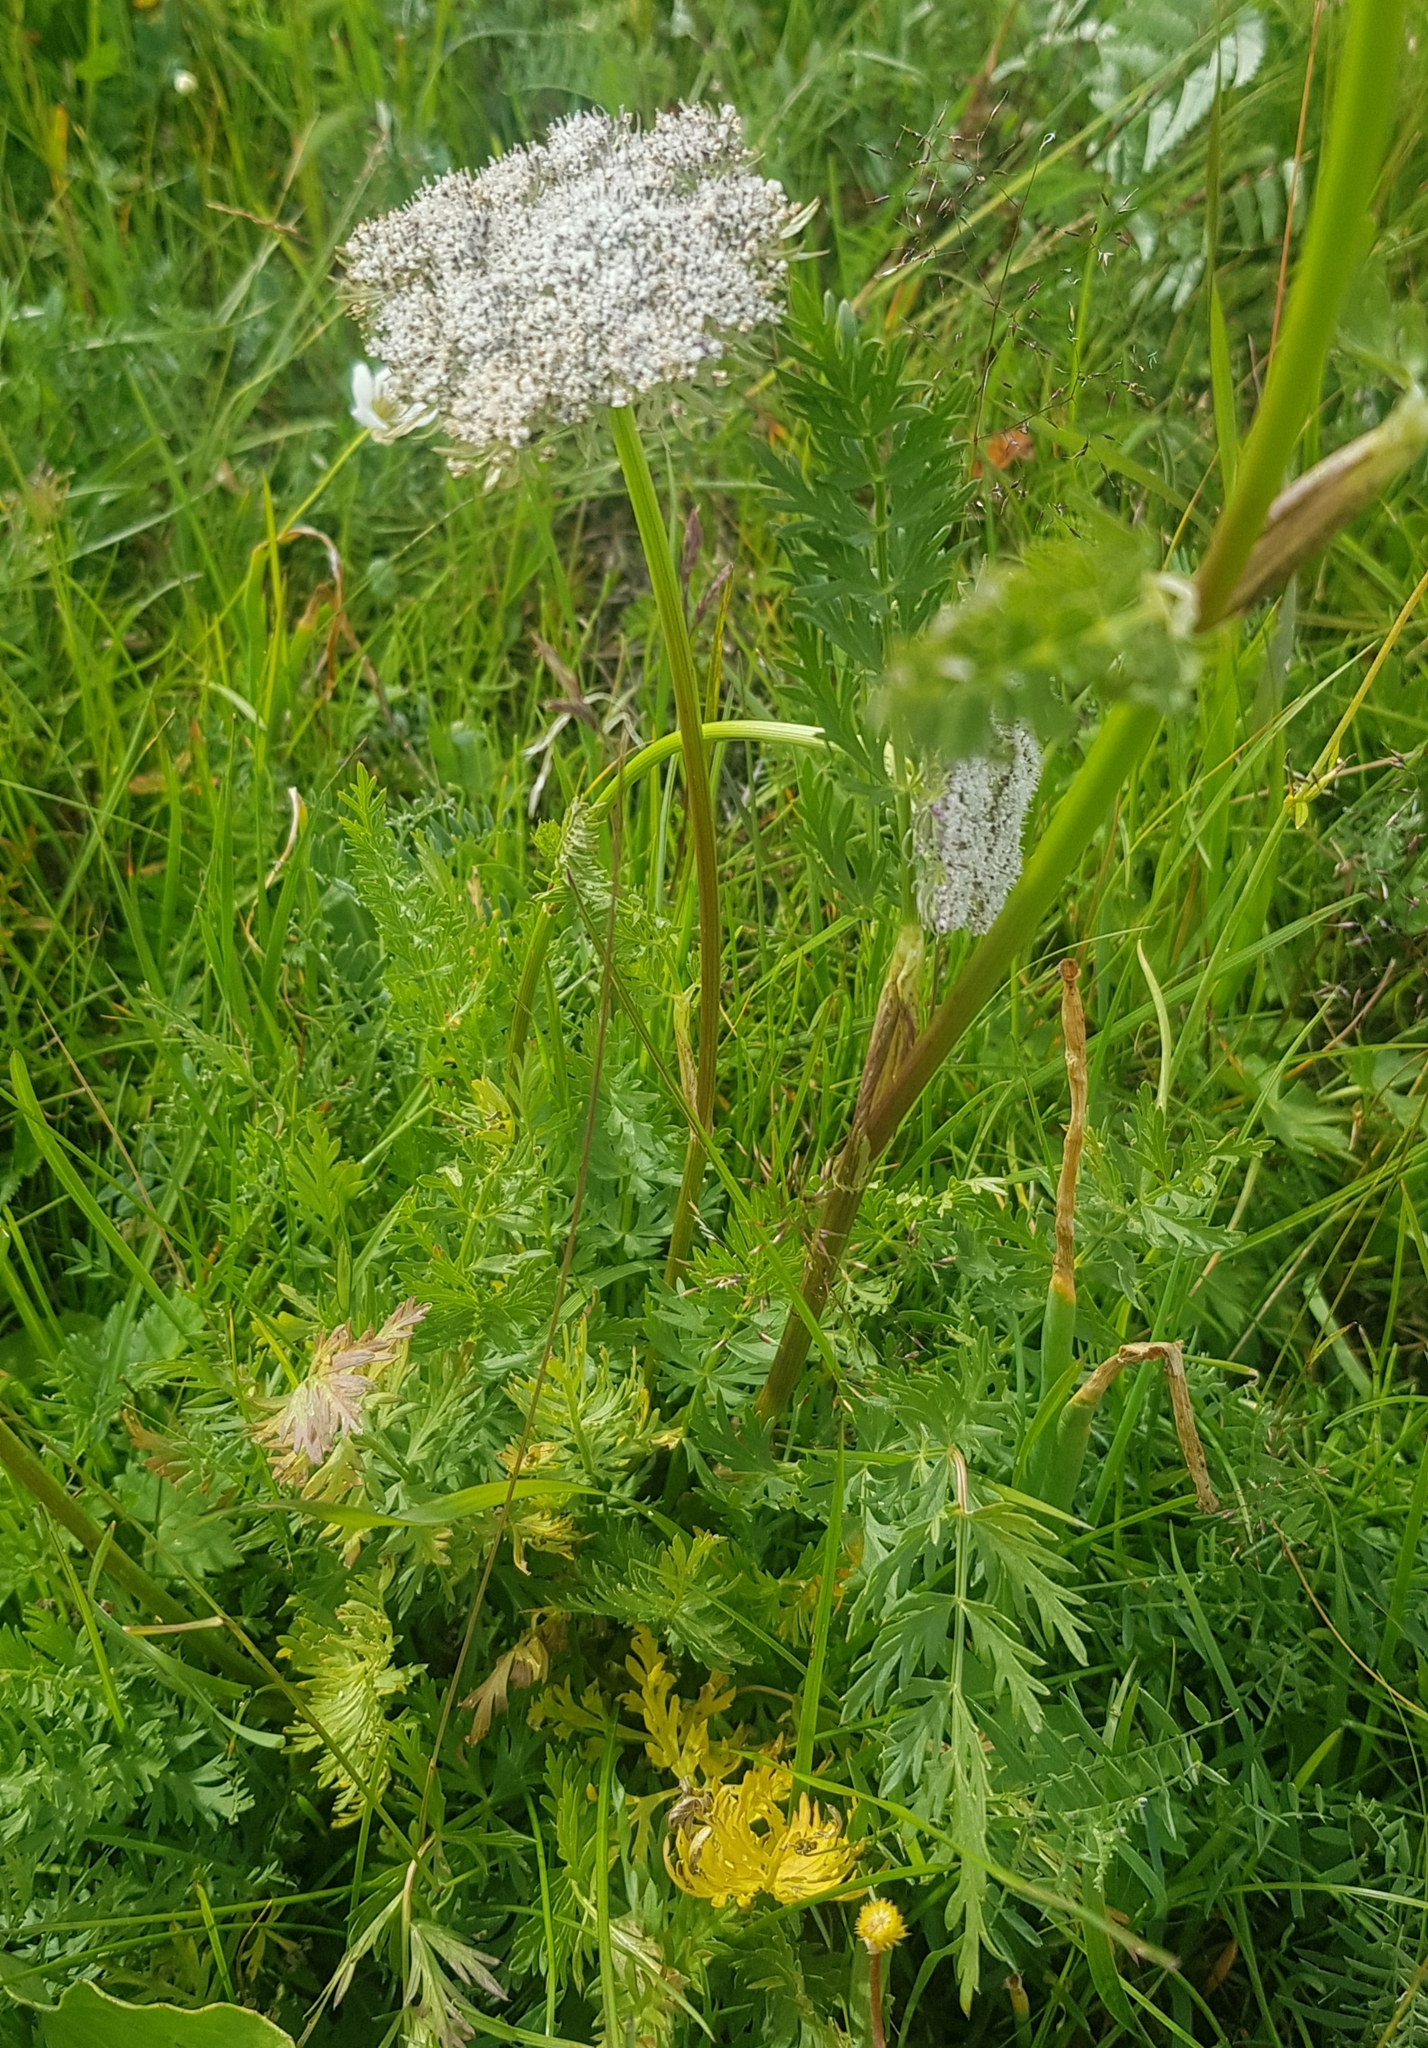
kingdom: Plantae
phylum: Tracheophyta
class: Magnoliopsida
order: Apiales
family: Apiaceae
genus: Seseli
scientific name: Seseli condensatum
